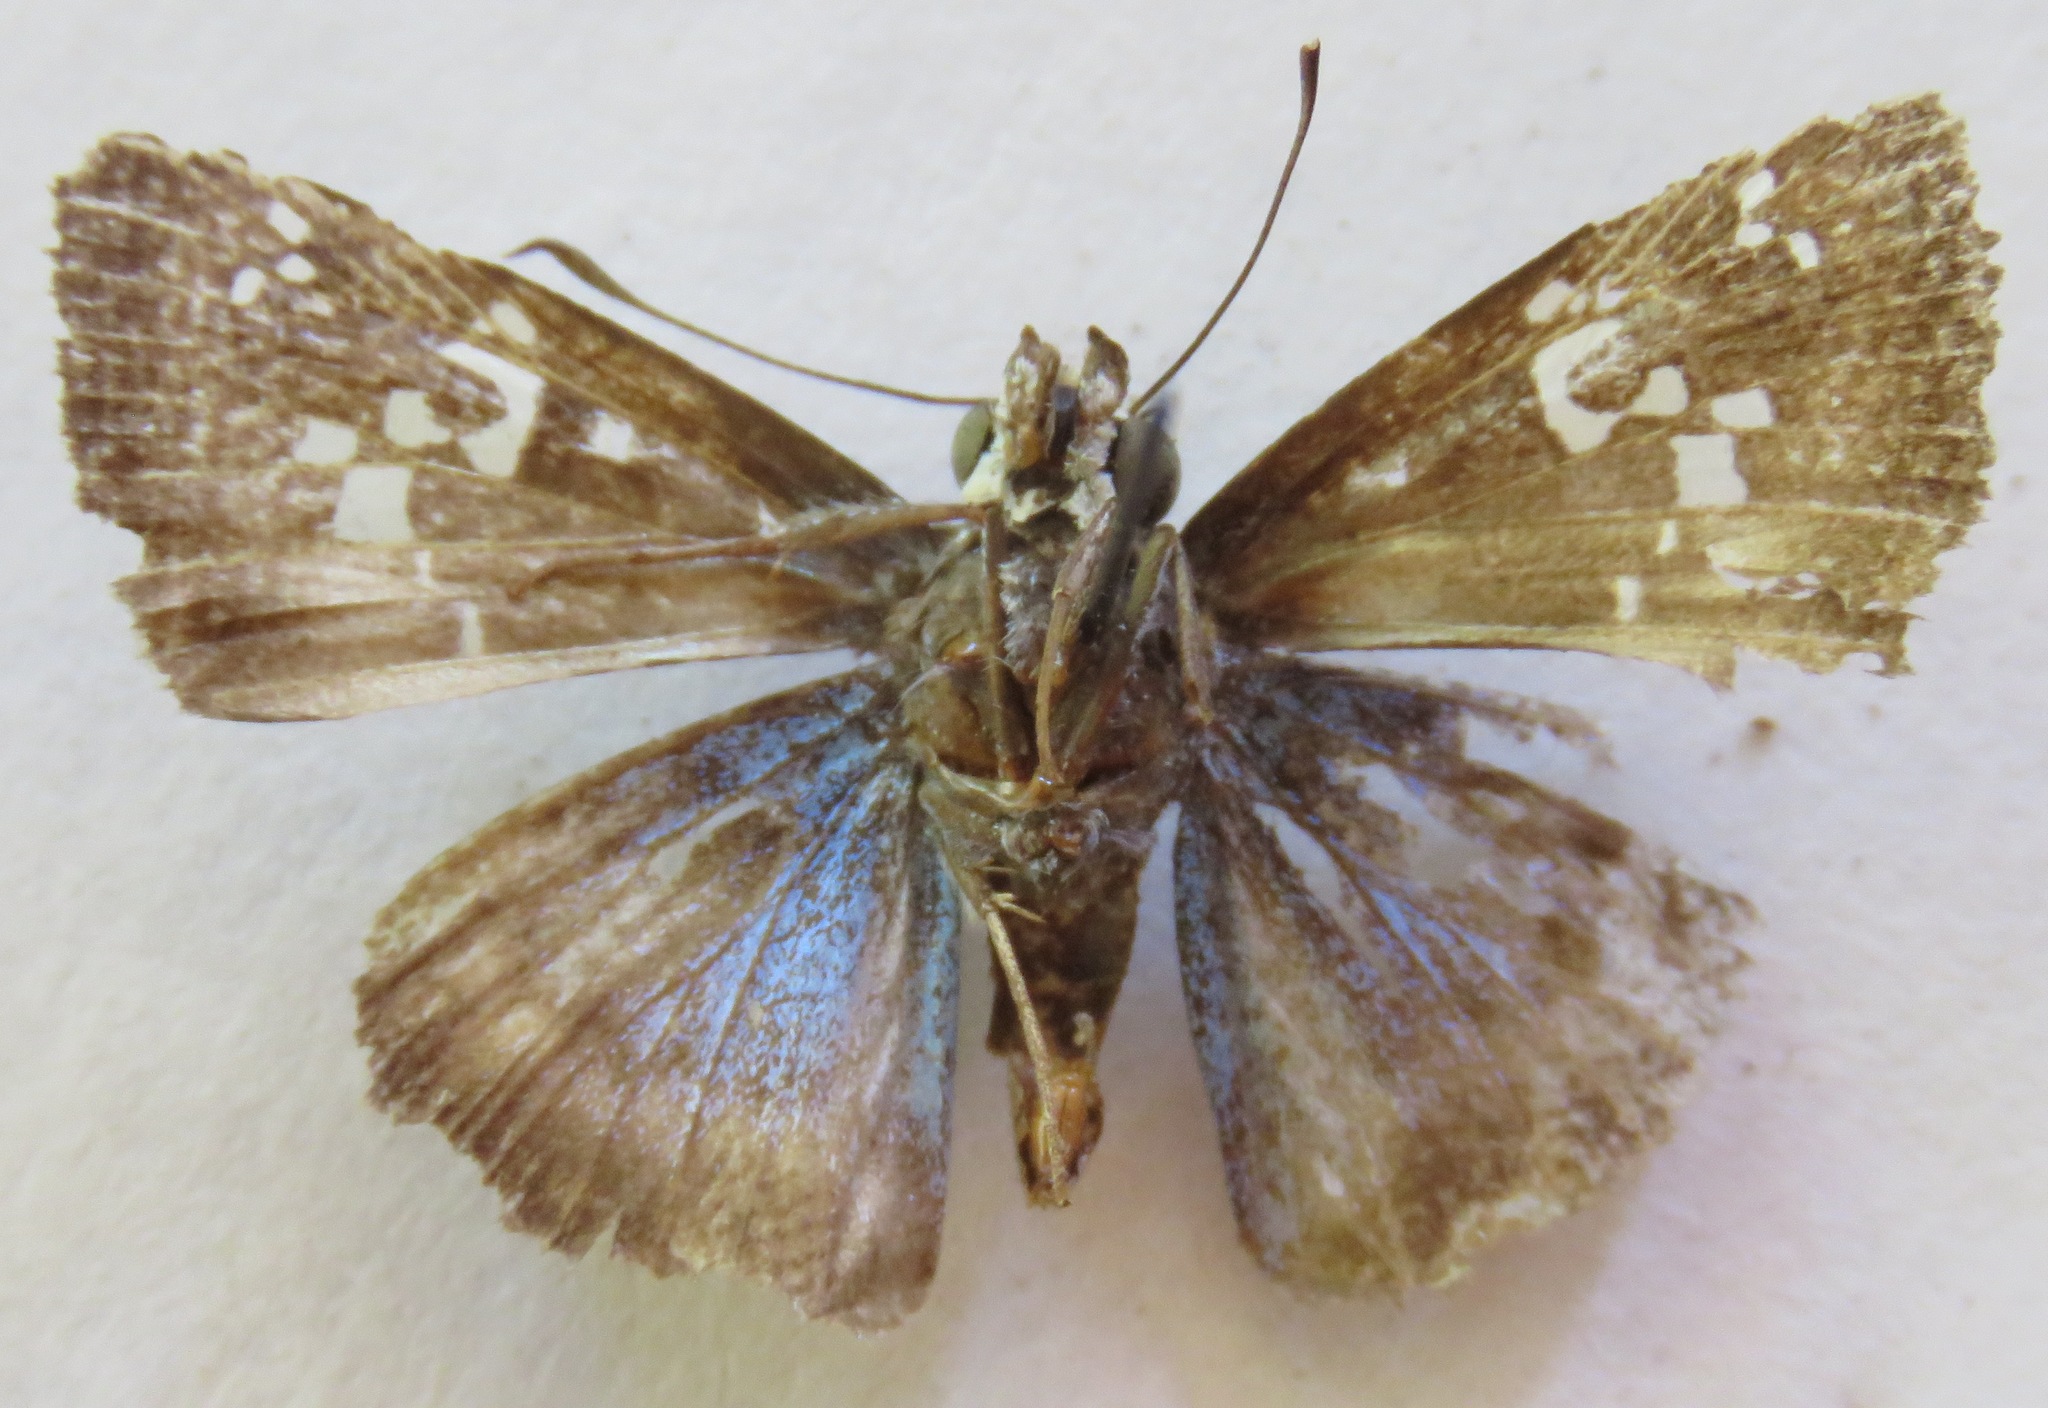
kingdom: Animalia
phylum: Arthropoda
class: Insecta
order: Lepidoptera
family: Hesperiidae
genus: Quadrus
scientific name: Quadrus cerialis
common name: Common blue-skipper
